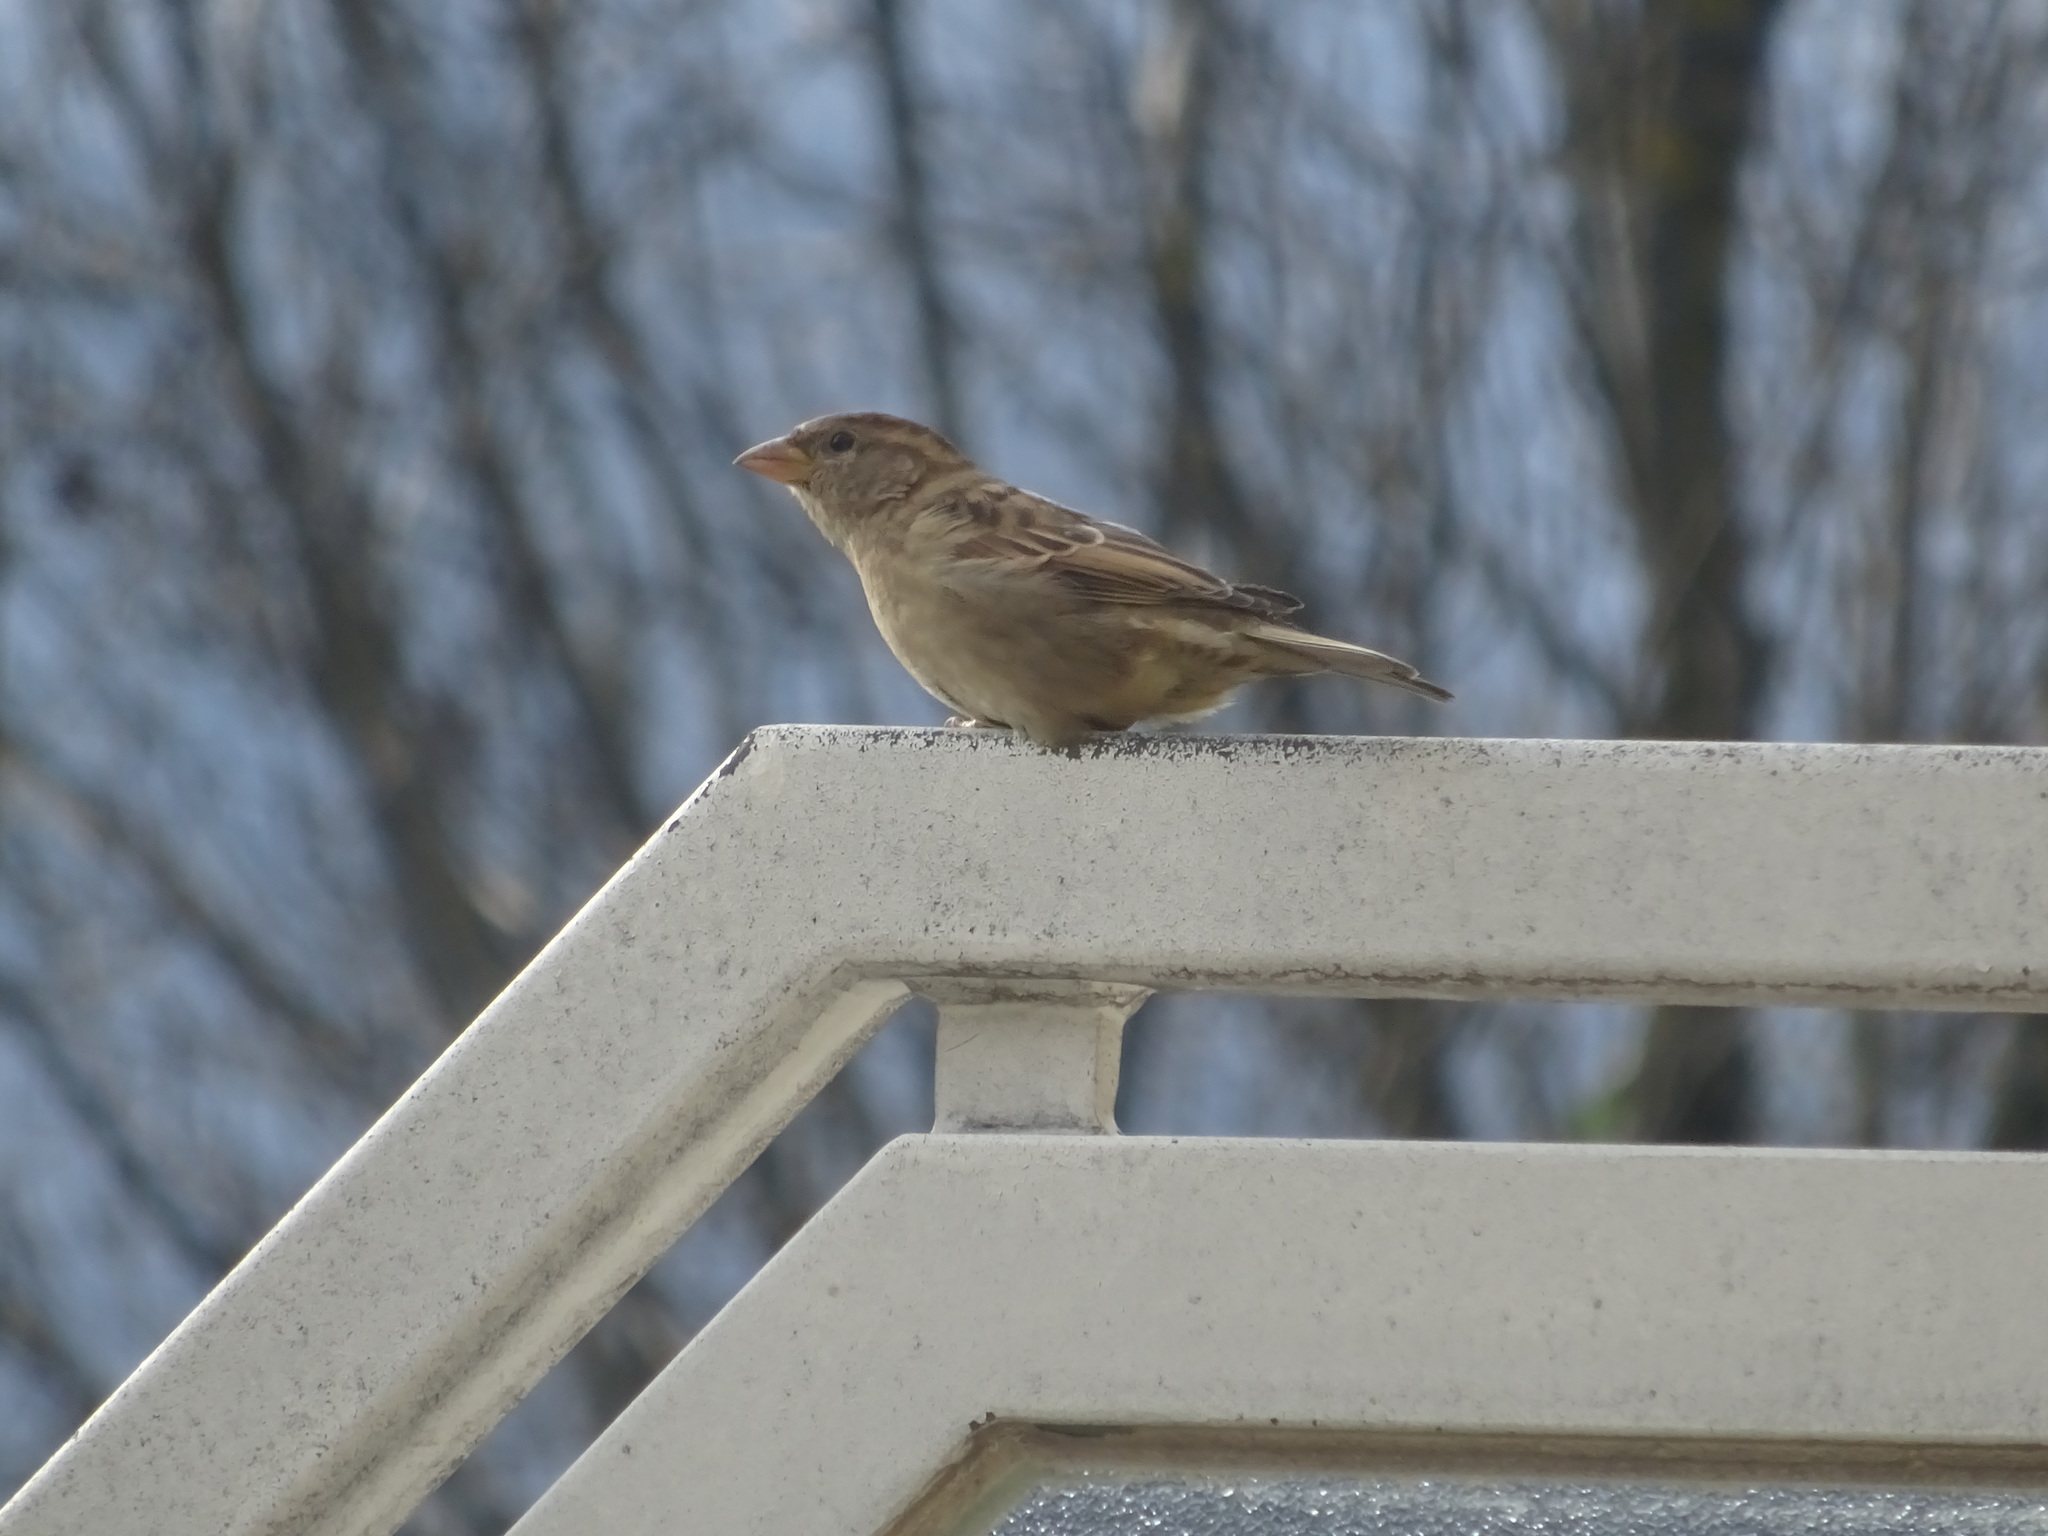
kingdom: Animalia
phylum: Chordata
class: Aves
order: Passeriformes
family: Passeridae
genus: Passer
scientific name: Passer domesticus
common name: House sparrow
